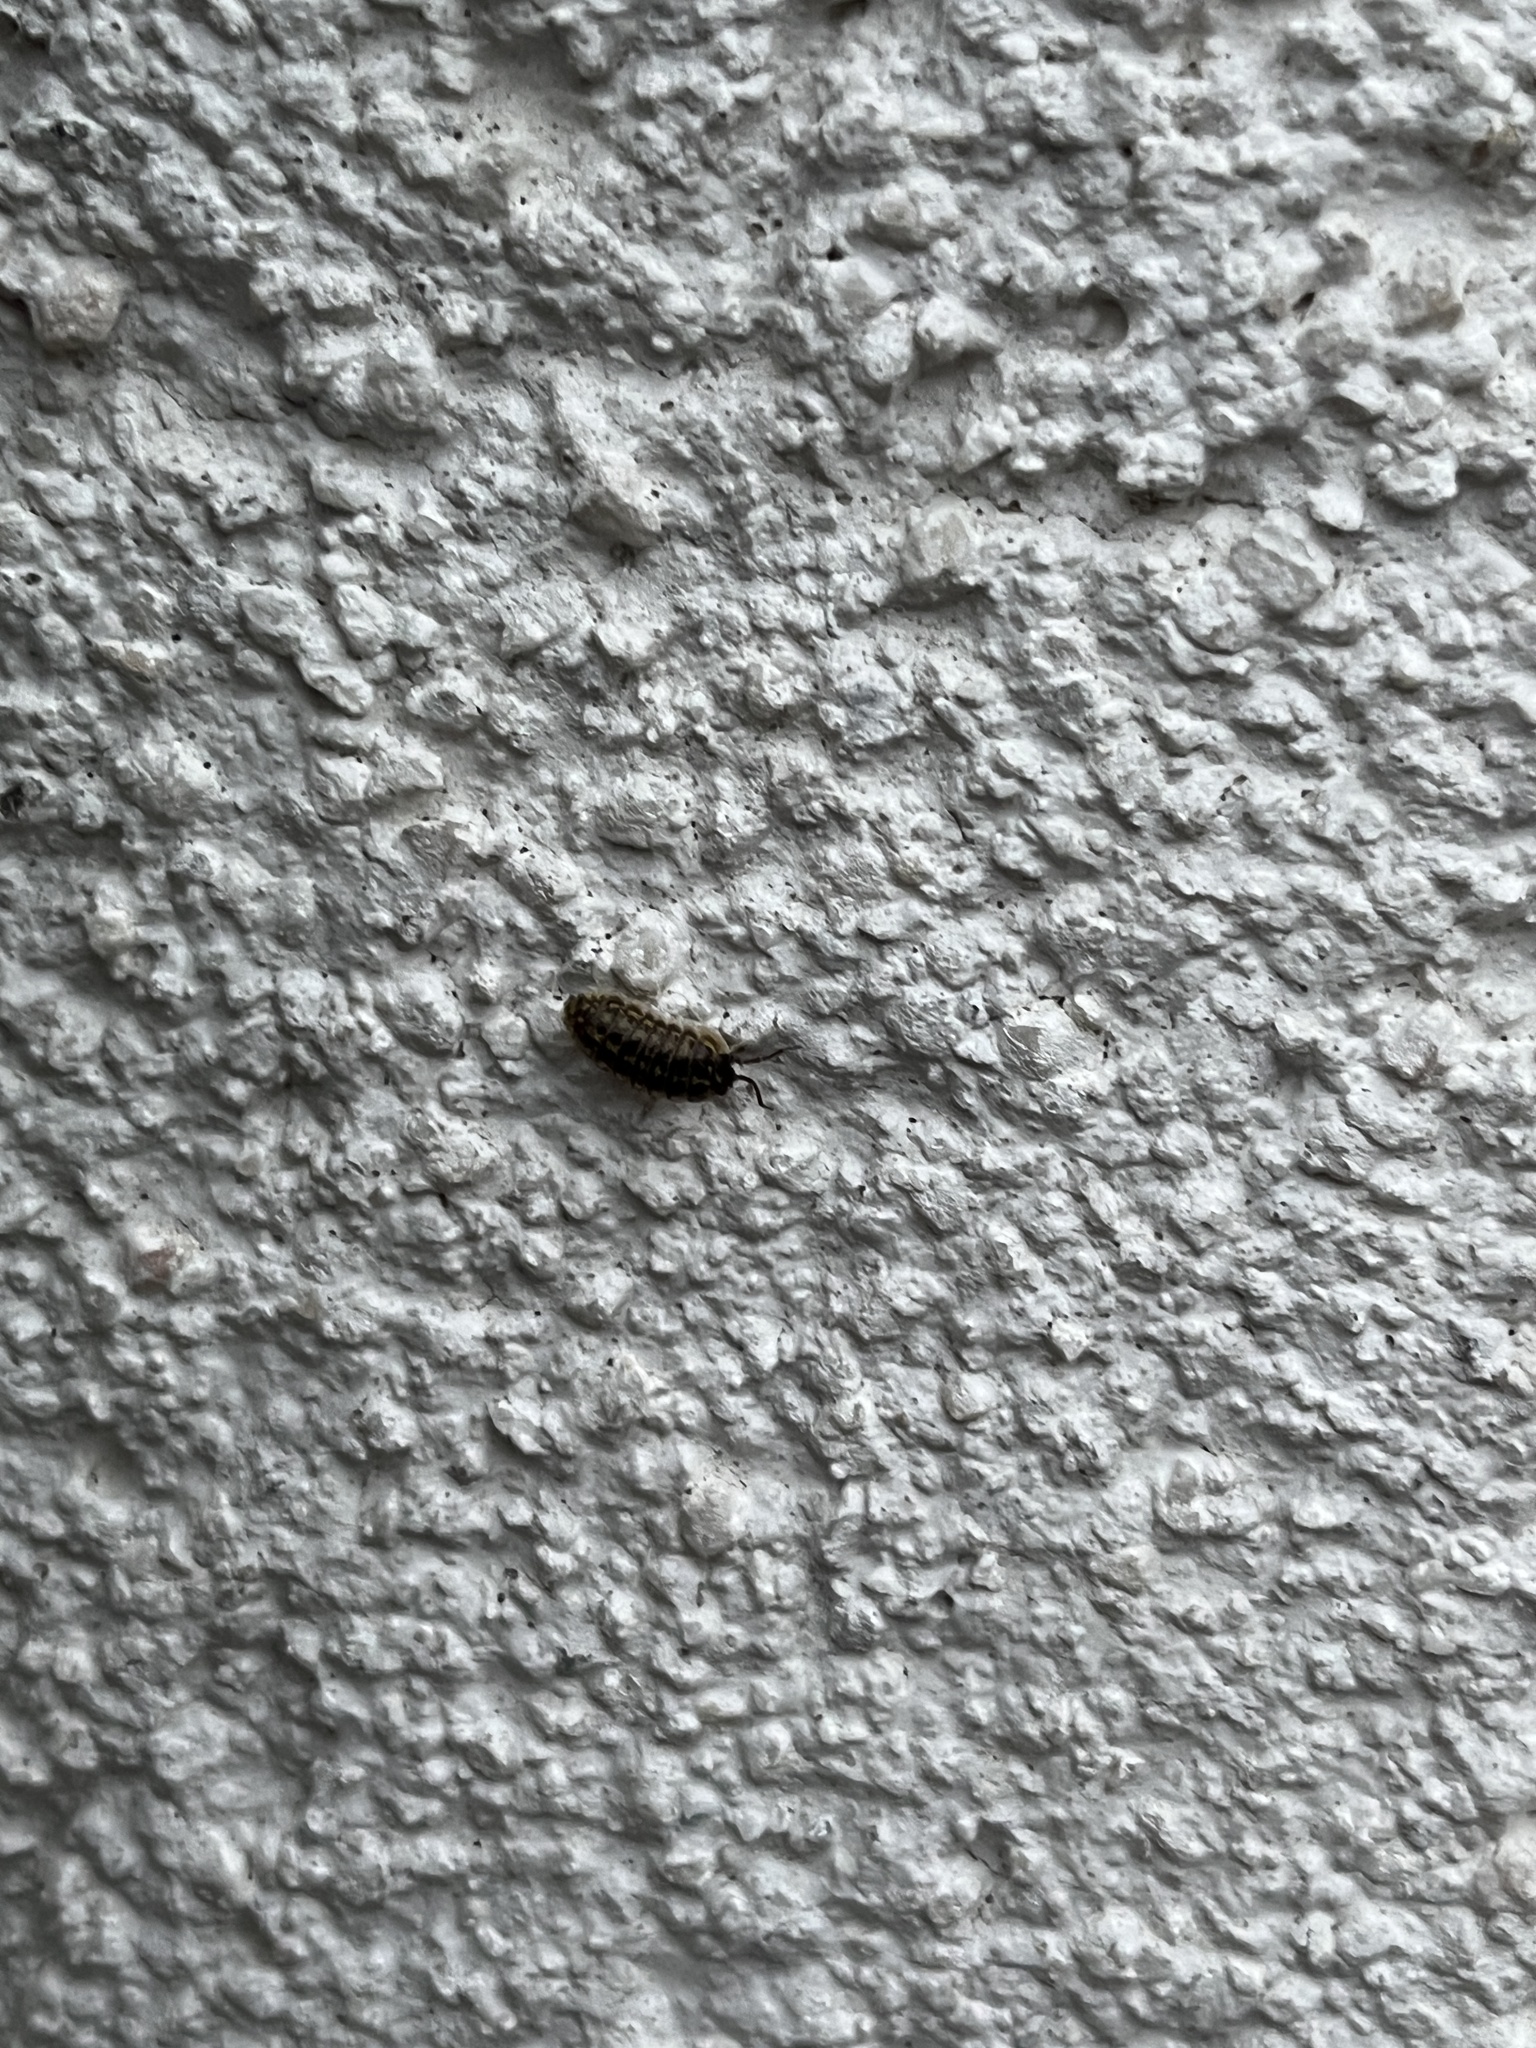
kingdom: Animalia
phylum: Arthropoda
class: Malacostraca
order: Isopoda
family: Armadillidiidae
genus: Armadillidium
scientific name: Armadillidium versicolor
